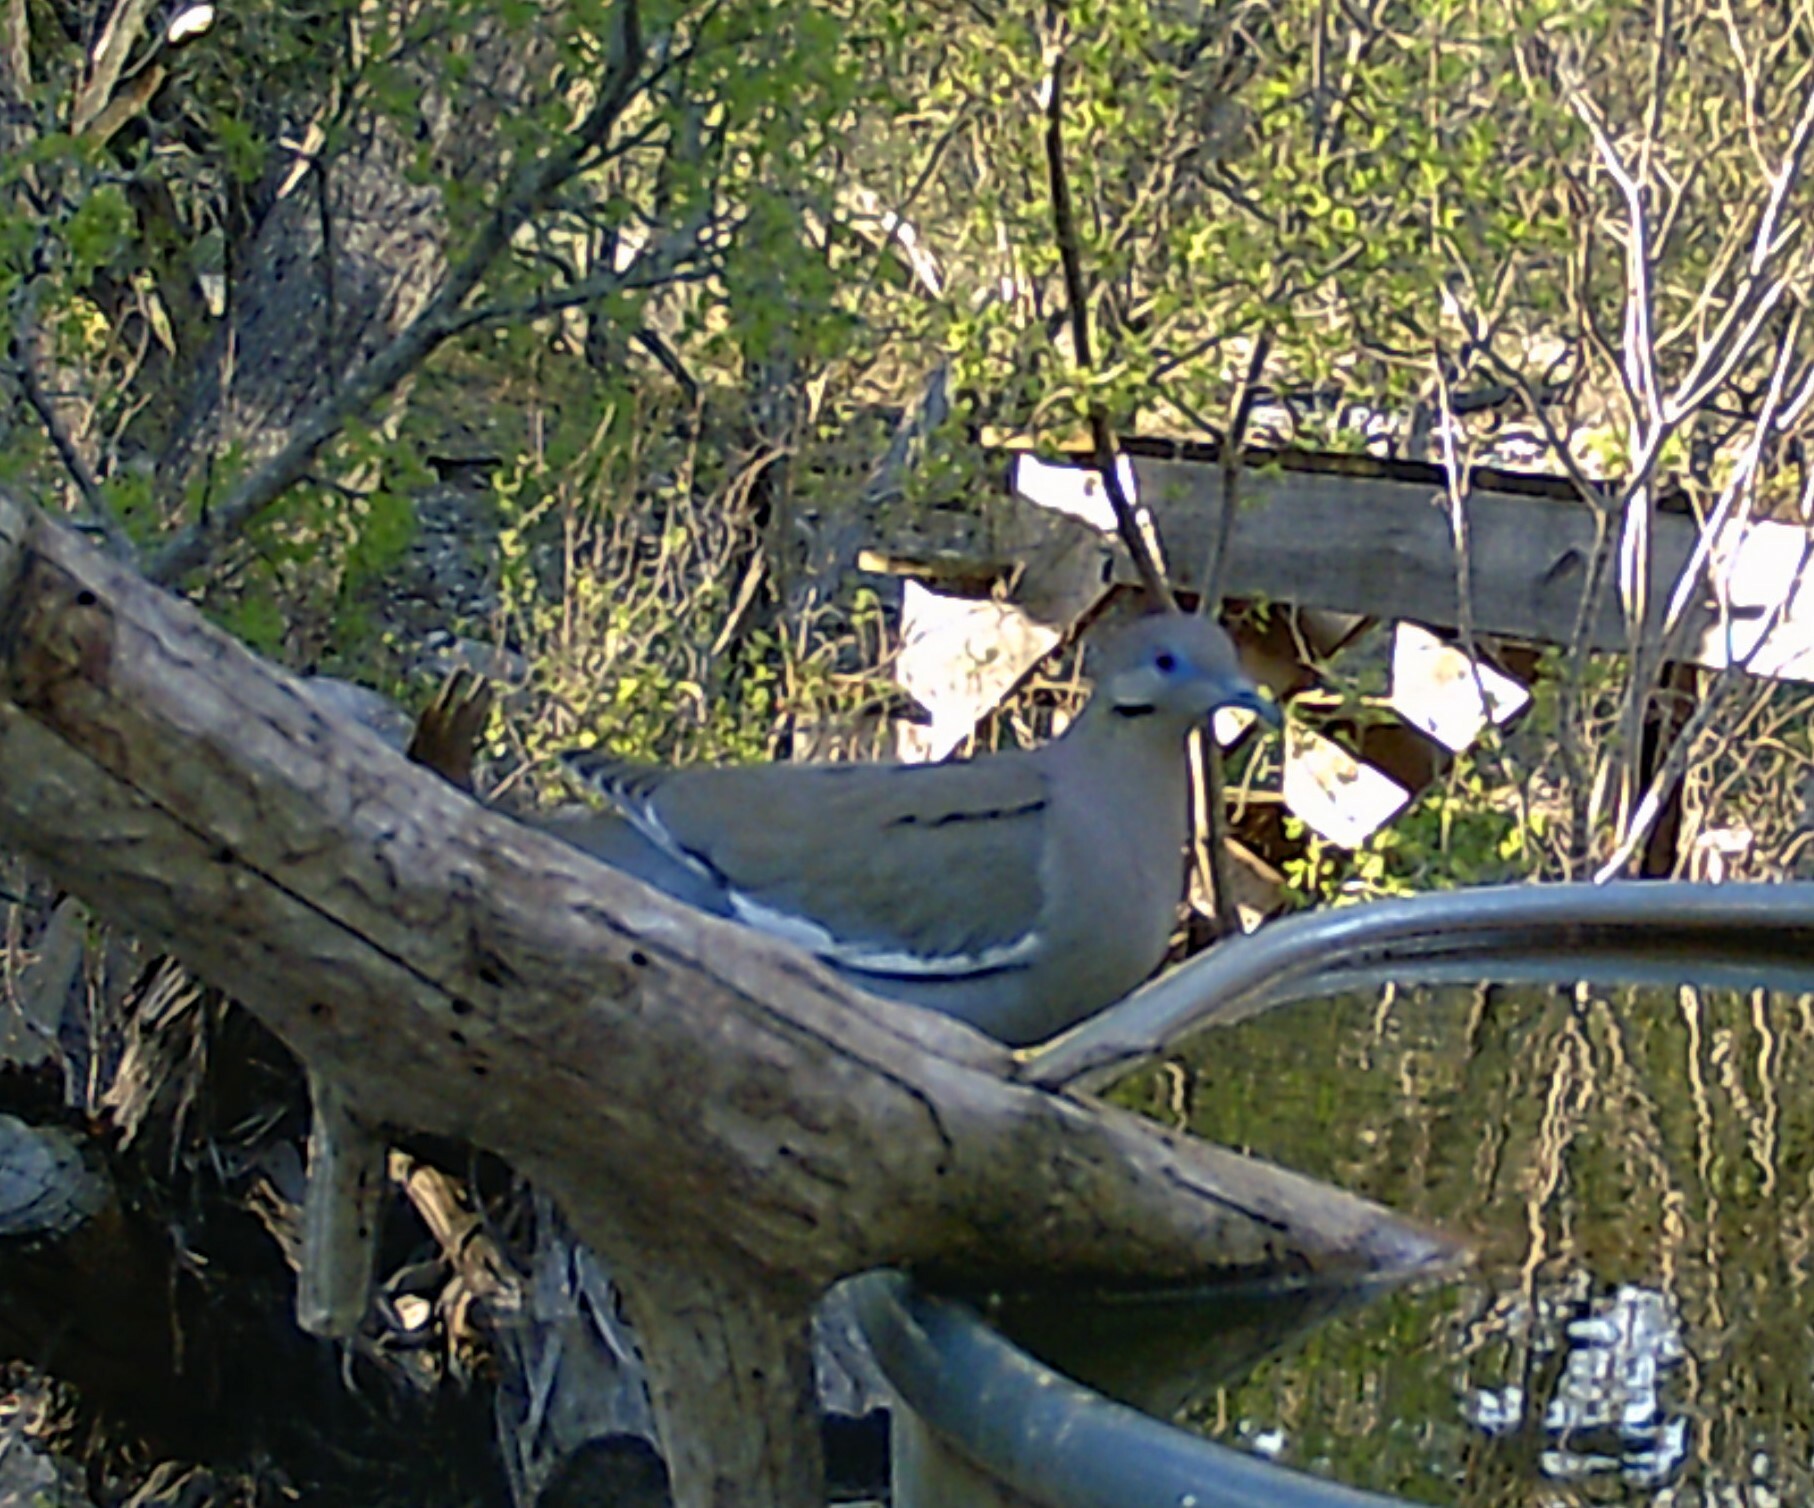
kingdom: Animalia
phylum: Chordata
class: Aves
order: Columbiformes
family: Columbidae
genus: Zenaida
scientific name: Zenaida asiatica
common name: White-winged dove
